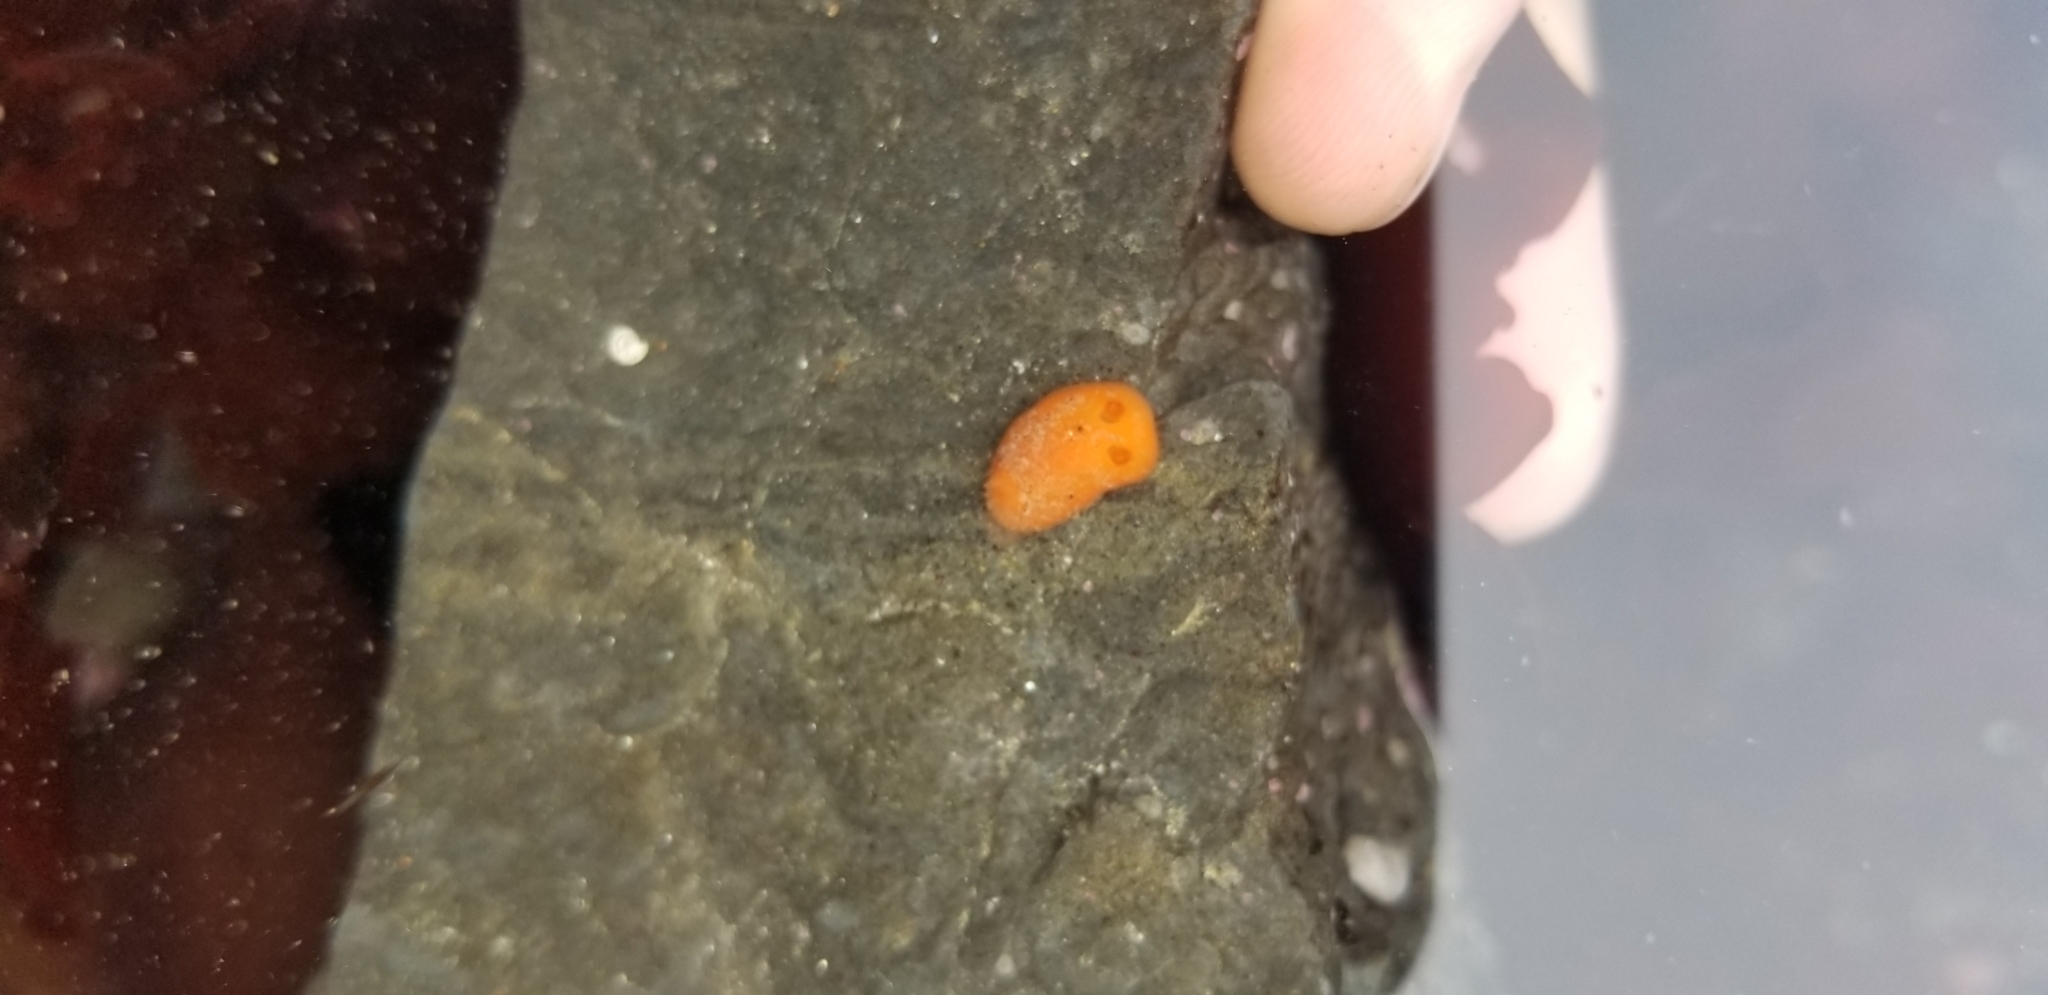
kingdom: Animalia
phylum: Mollusca
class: Gastropoda
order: Nudibranchia
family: Discodorididae
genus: Rostanga
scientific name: Rostanga pulchra
